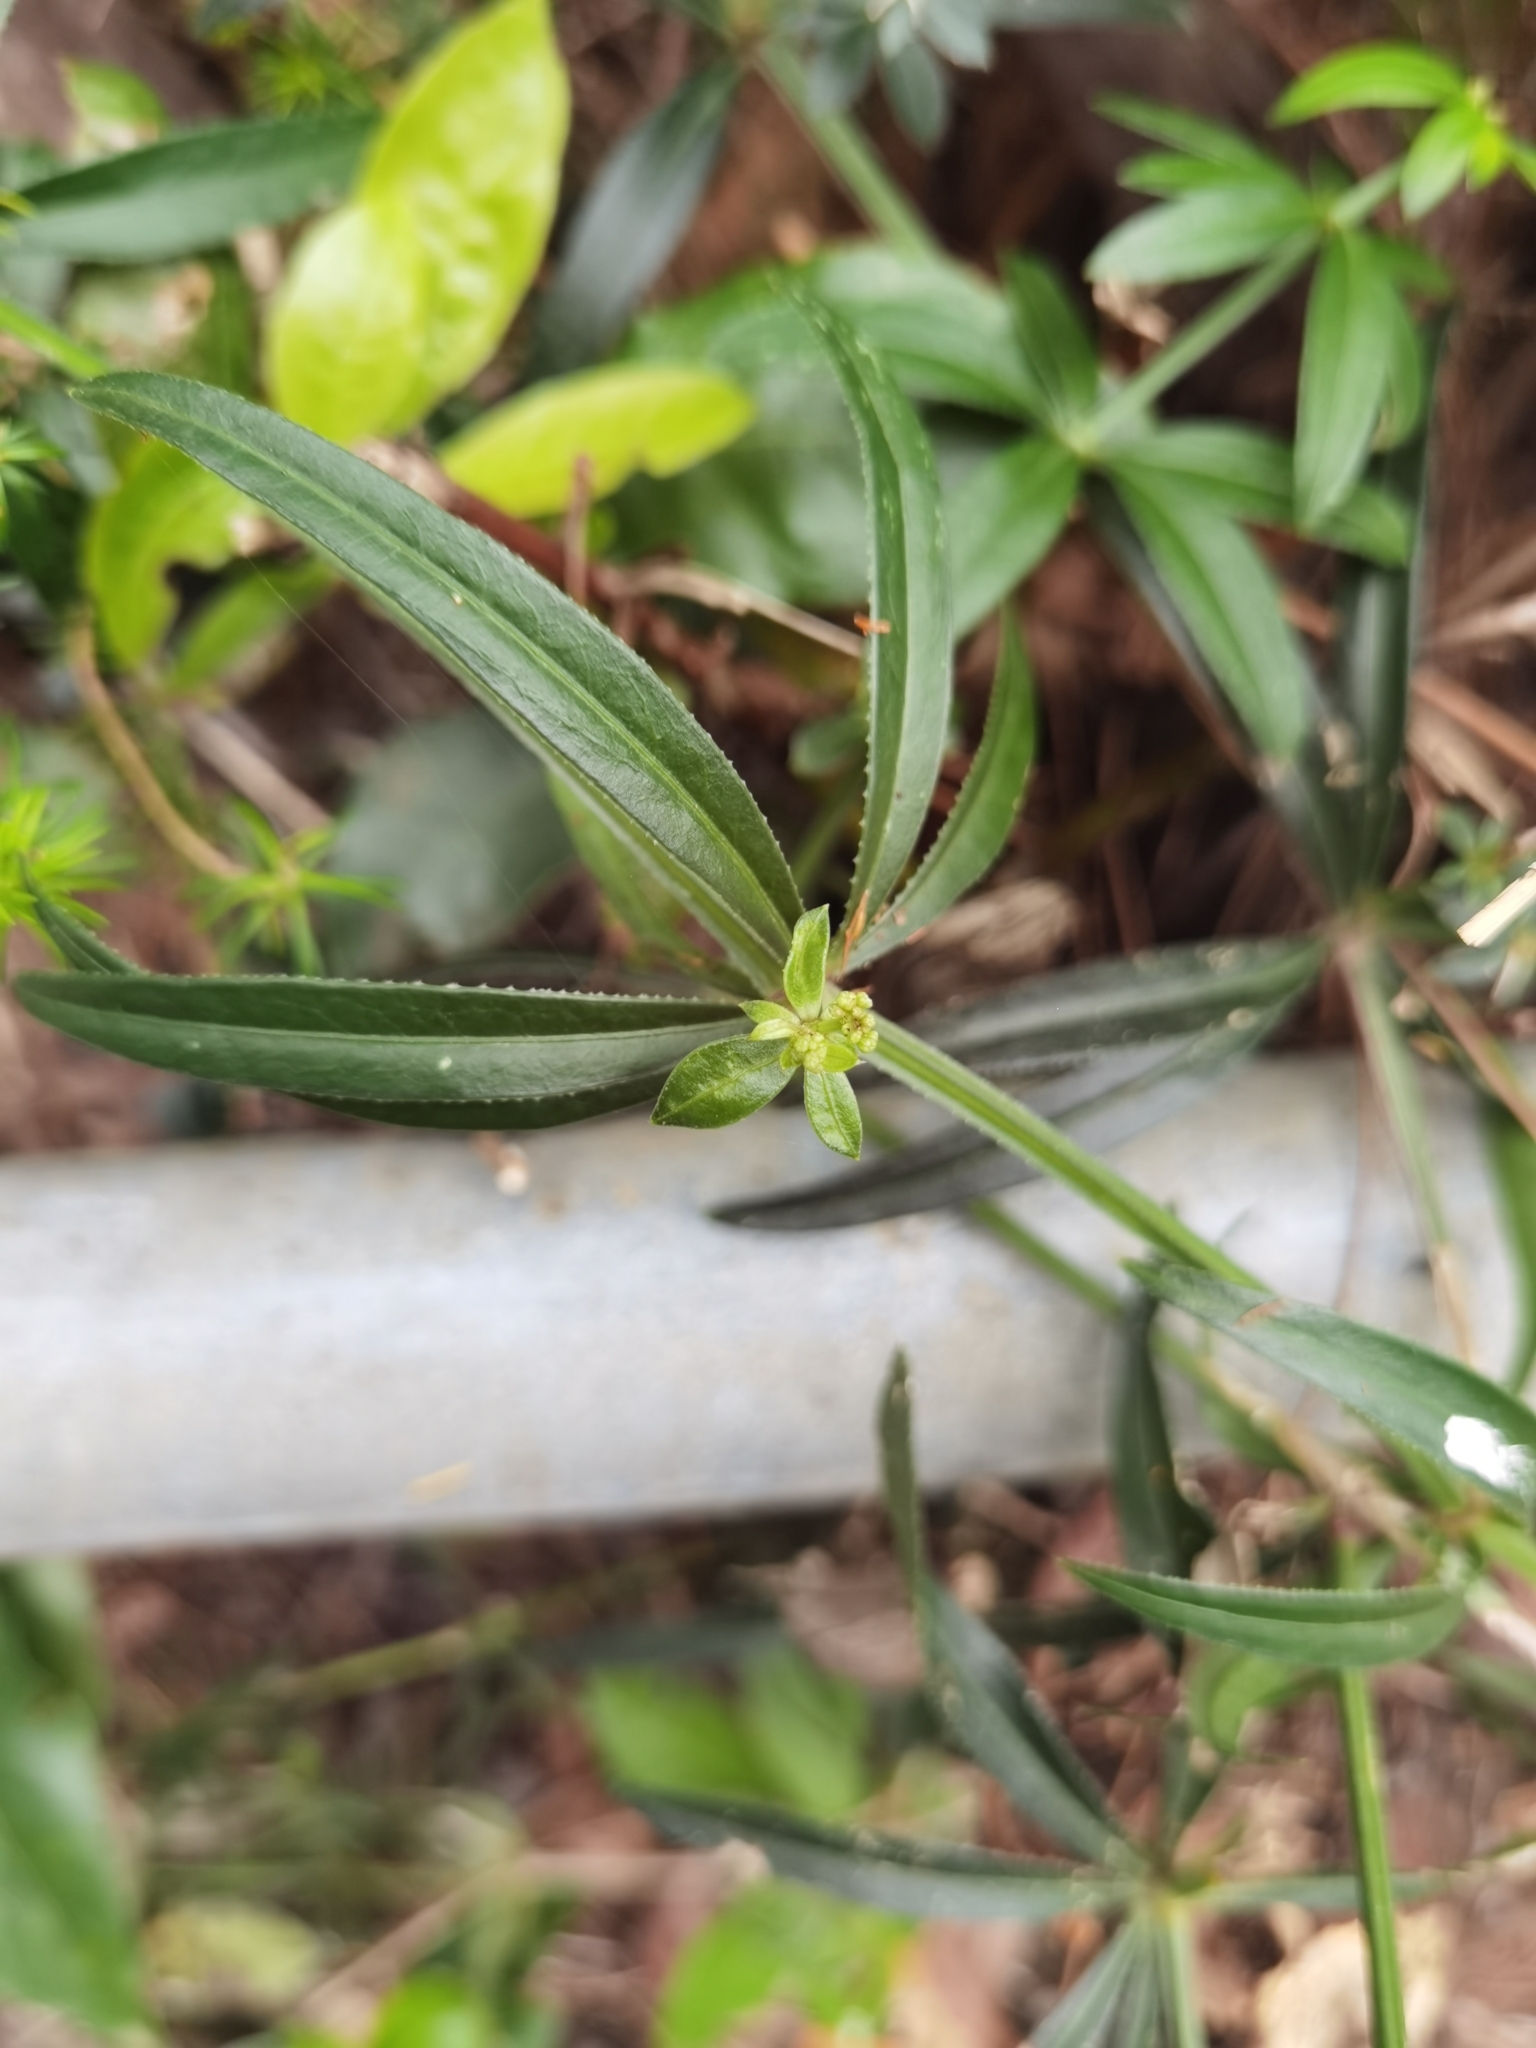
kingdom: Plantae
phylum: Tracheophyta
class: Magnoliopsida
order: Gentianales
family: Rubiaceae
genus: Rubia
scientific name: Rubia occidens
